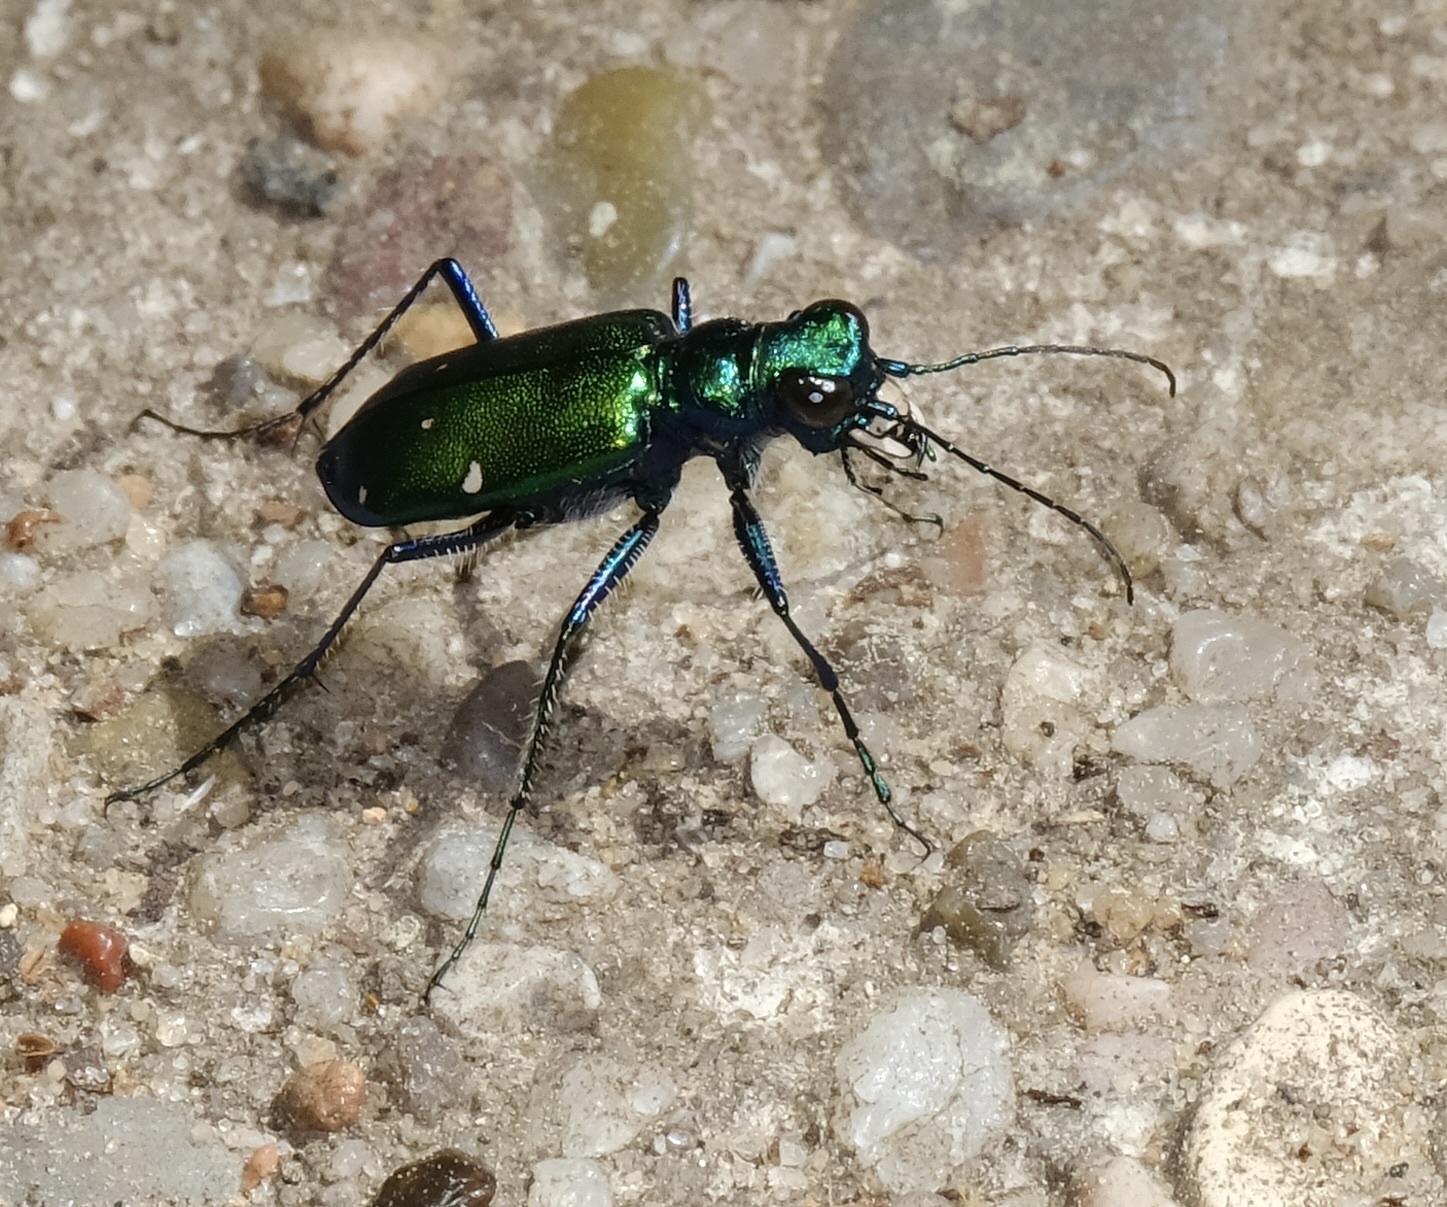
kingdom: Animalia
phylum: Arthropoda
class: Insecta
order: Coleoptera
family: Carabidae
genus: Cicindela
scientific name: Cicindela sexguttata
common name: Six-spotted tiger beetle
